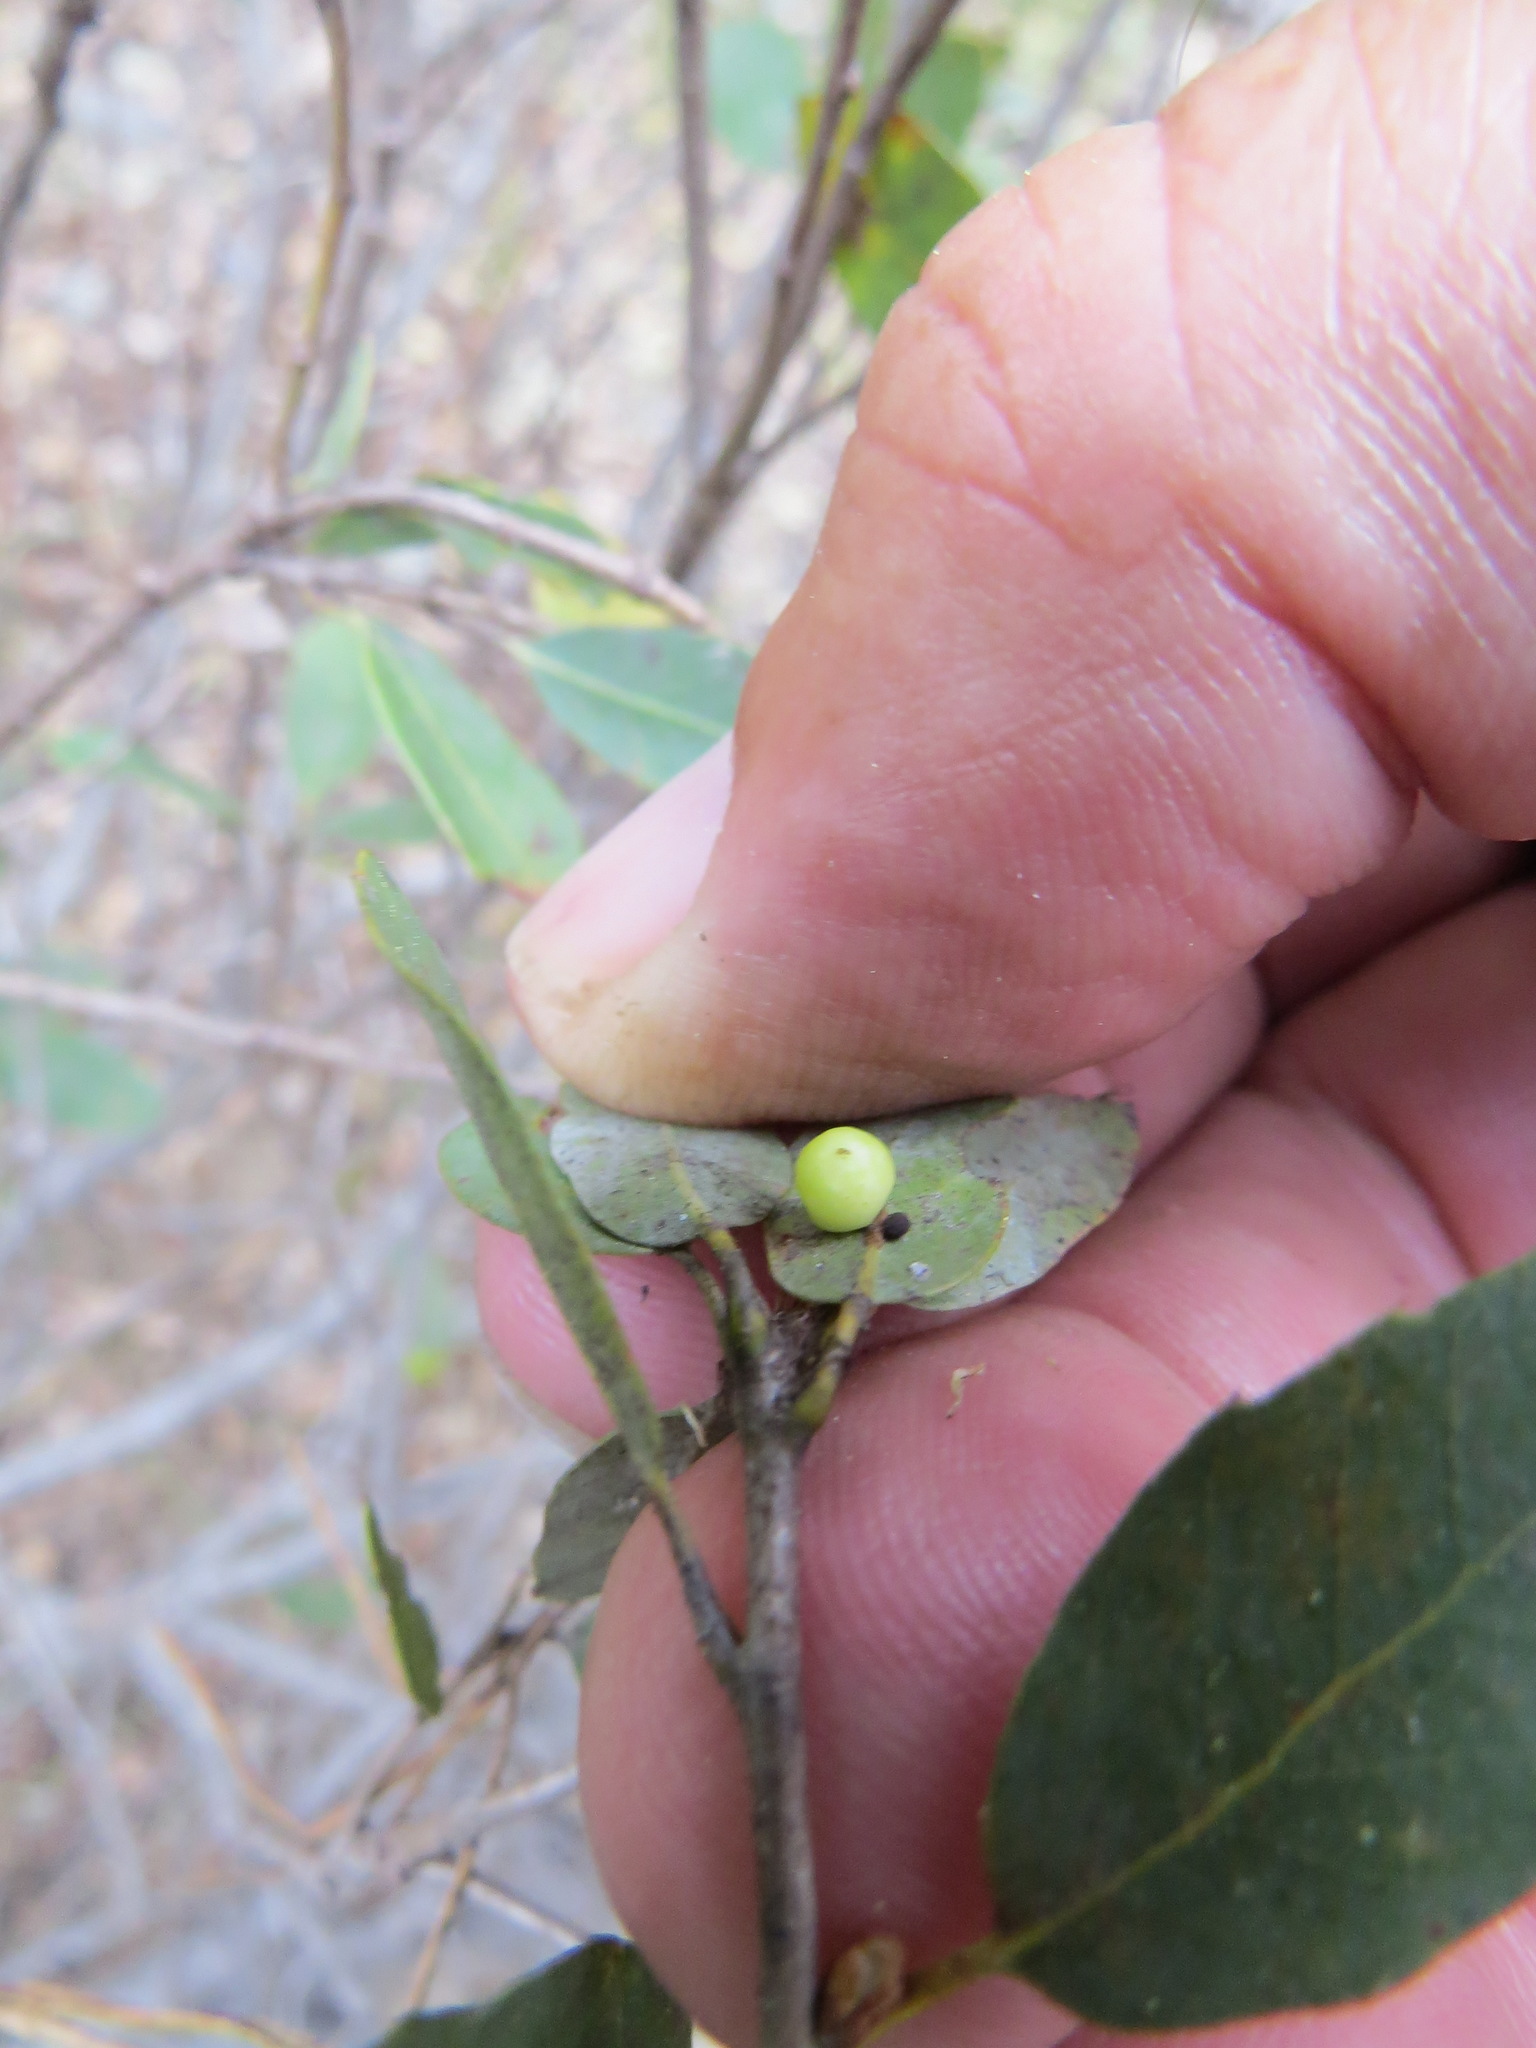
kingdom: Animalia
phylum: Arthropoda
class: Insecta
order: Hymenoptera
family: Cynipidae
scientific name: Cynipidae
